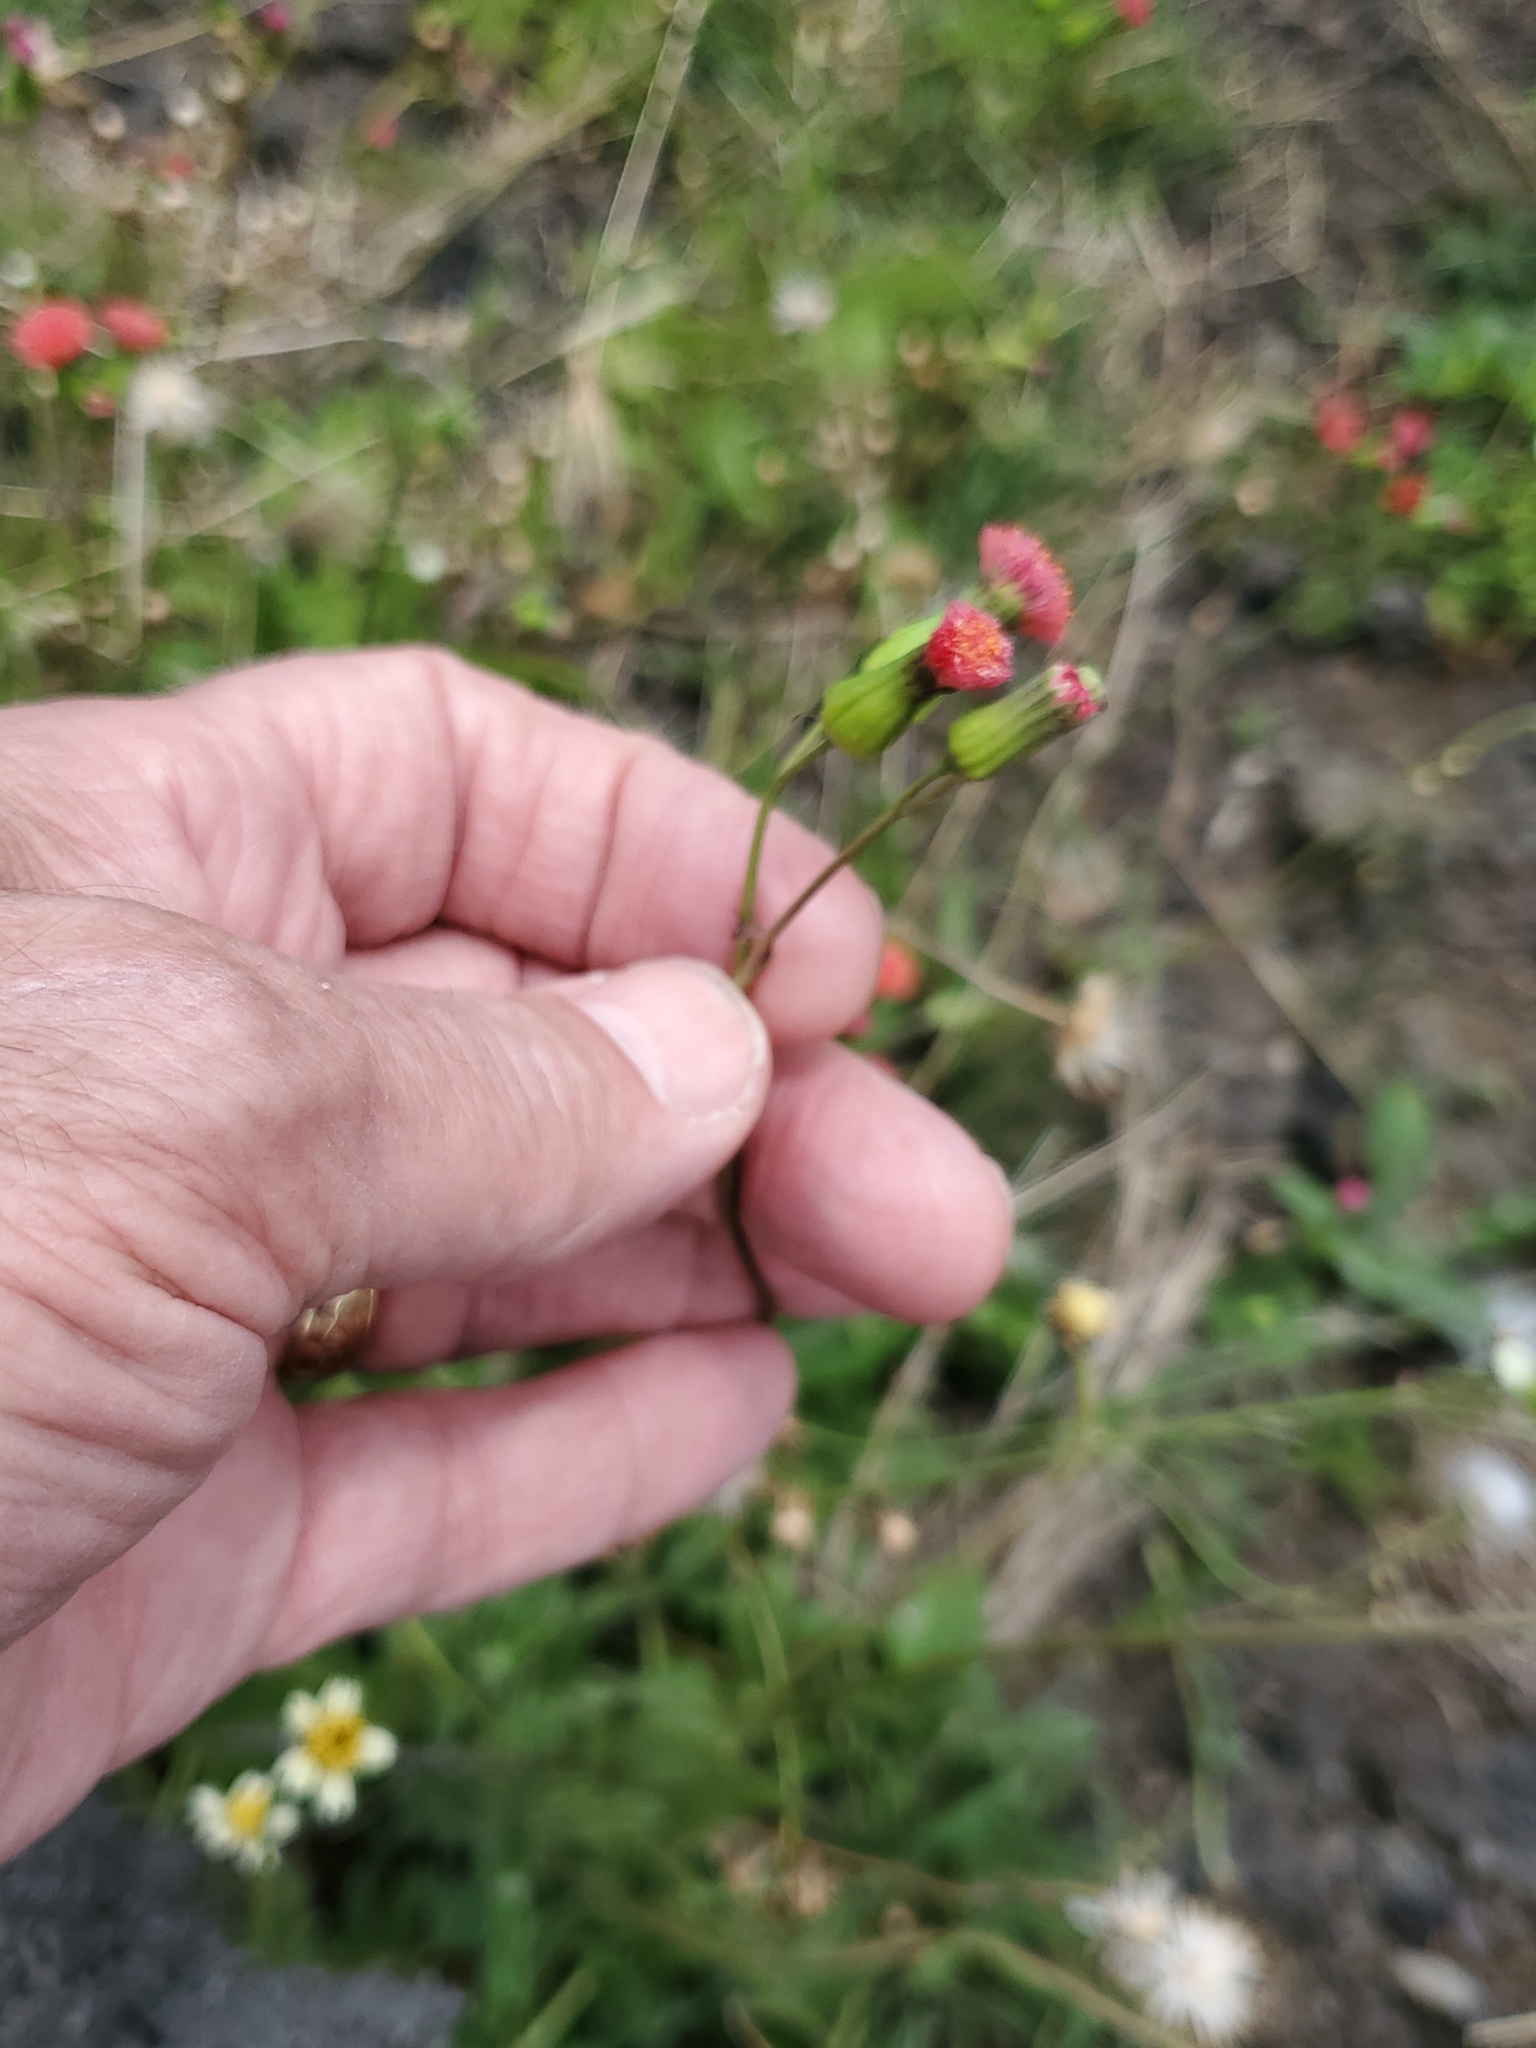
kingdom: Plantae
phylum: Tracheophyta
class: Magnoliopsida
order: Asterales
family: Asteraceae
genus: Emilia
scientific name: Emilia fosbergii
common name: Florida tasselflower
